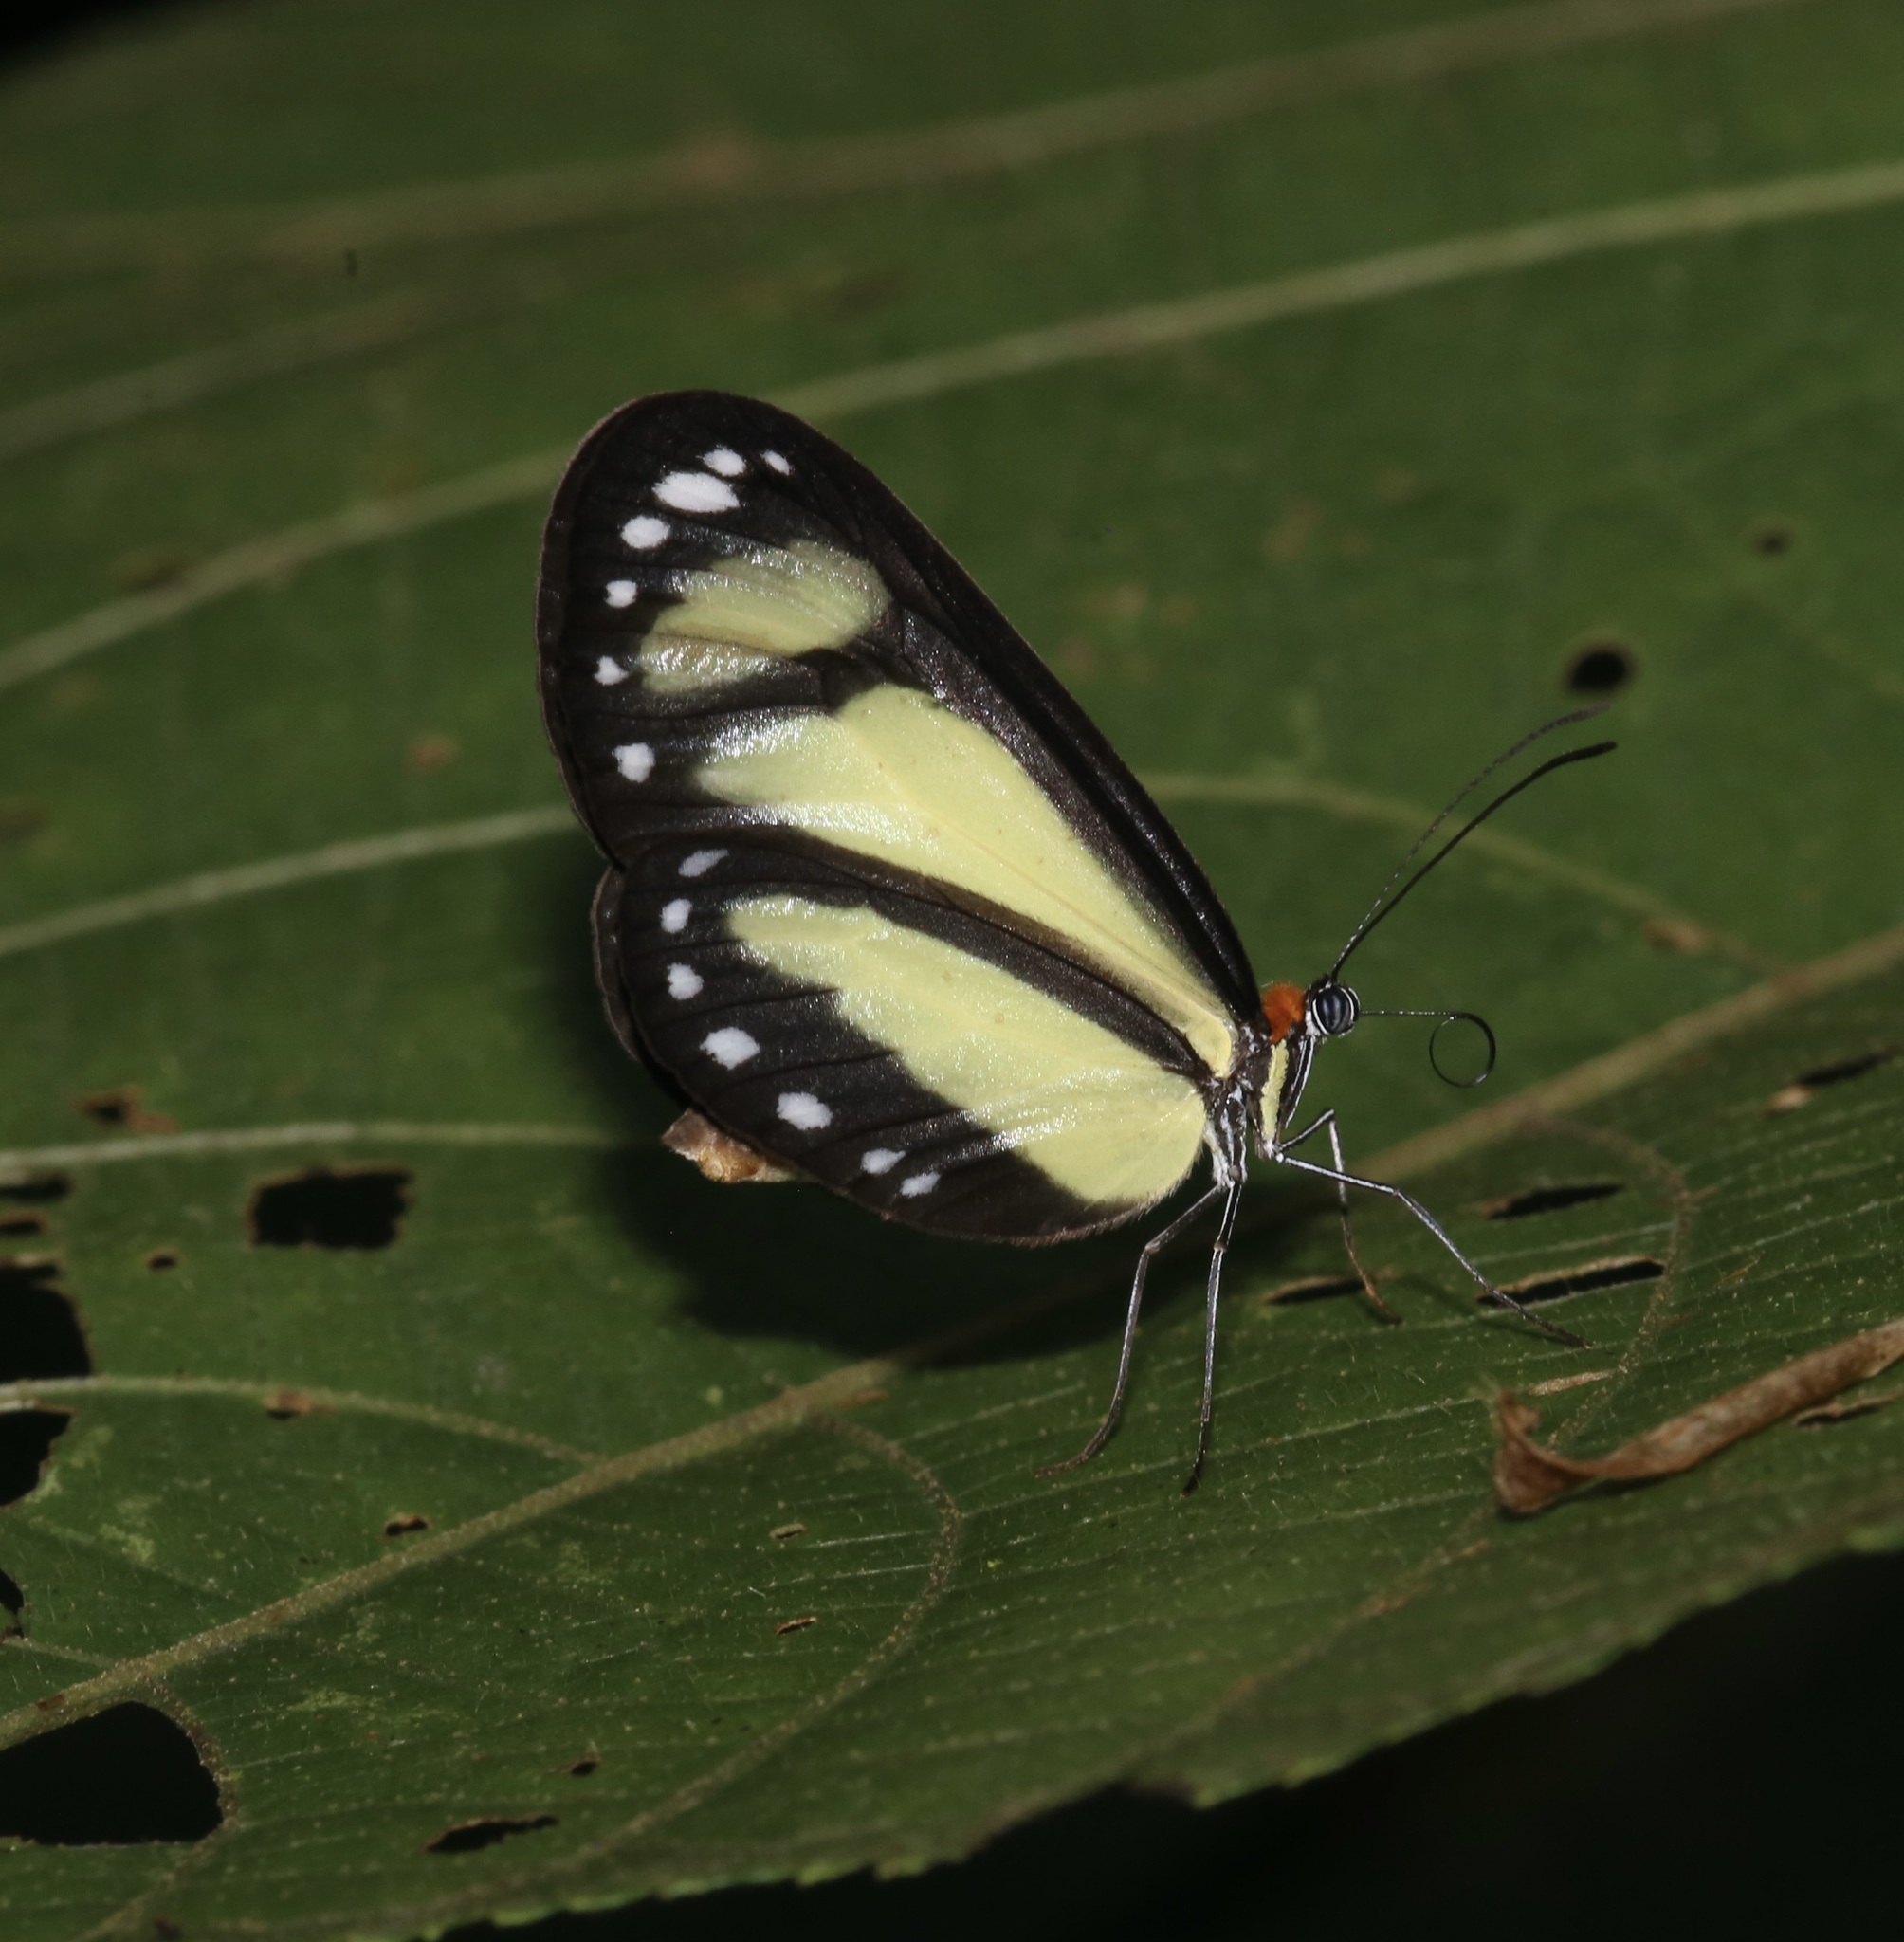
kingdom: Animalia
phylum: Arthropoda
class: Insecta
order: Lepidoptera
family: Nymphalidae
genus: Scada
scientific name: Scada zibia
